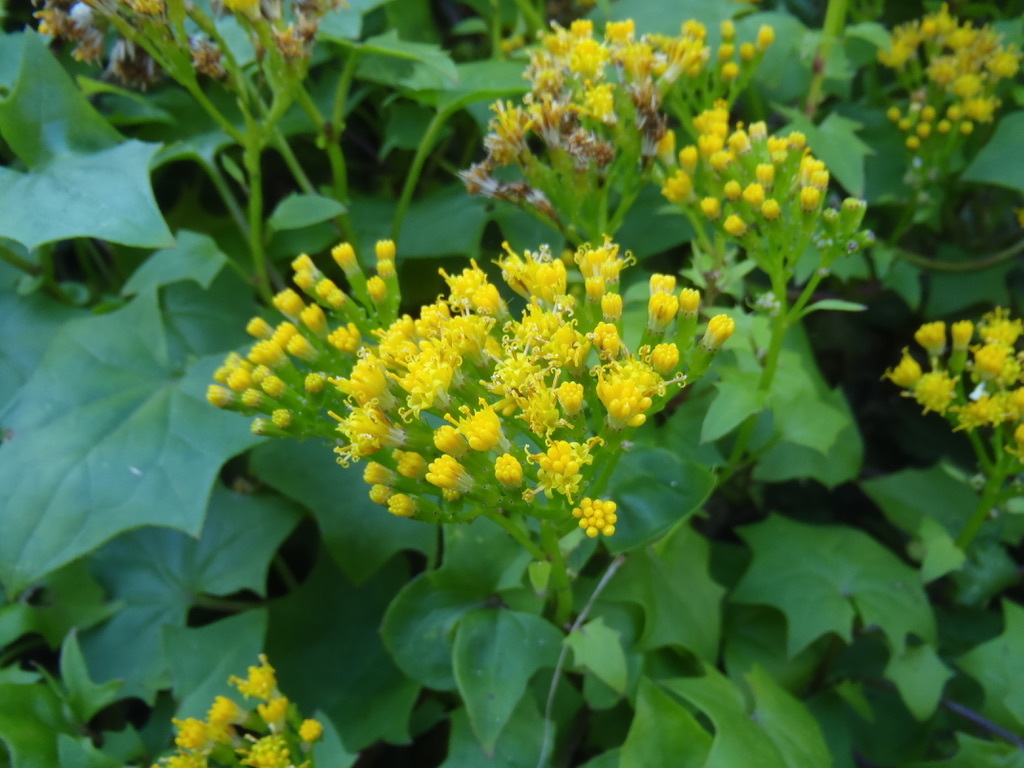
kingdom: Plantae
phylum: Tracheophyta
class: Magnoliopsida
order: Asterales
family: Asteraceae
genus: Delairea
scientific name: Delairea odorata
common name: Cape-ivy
